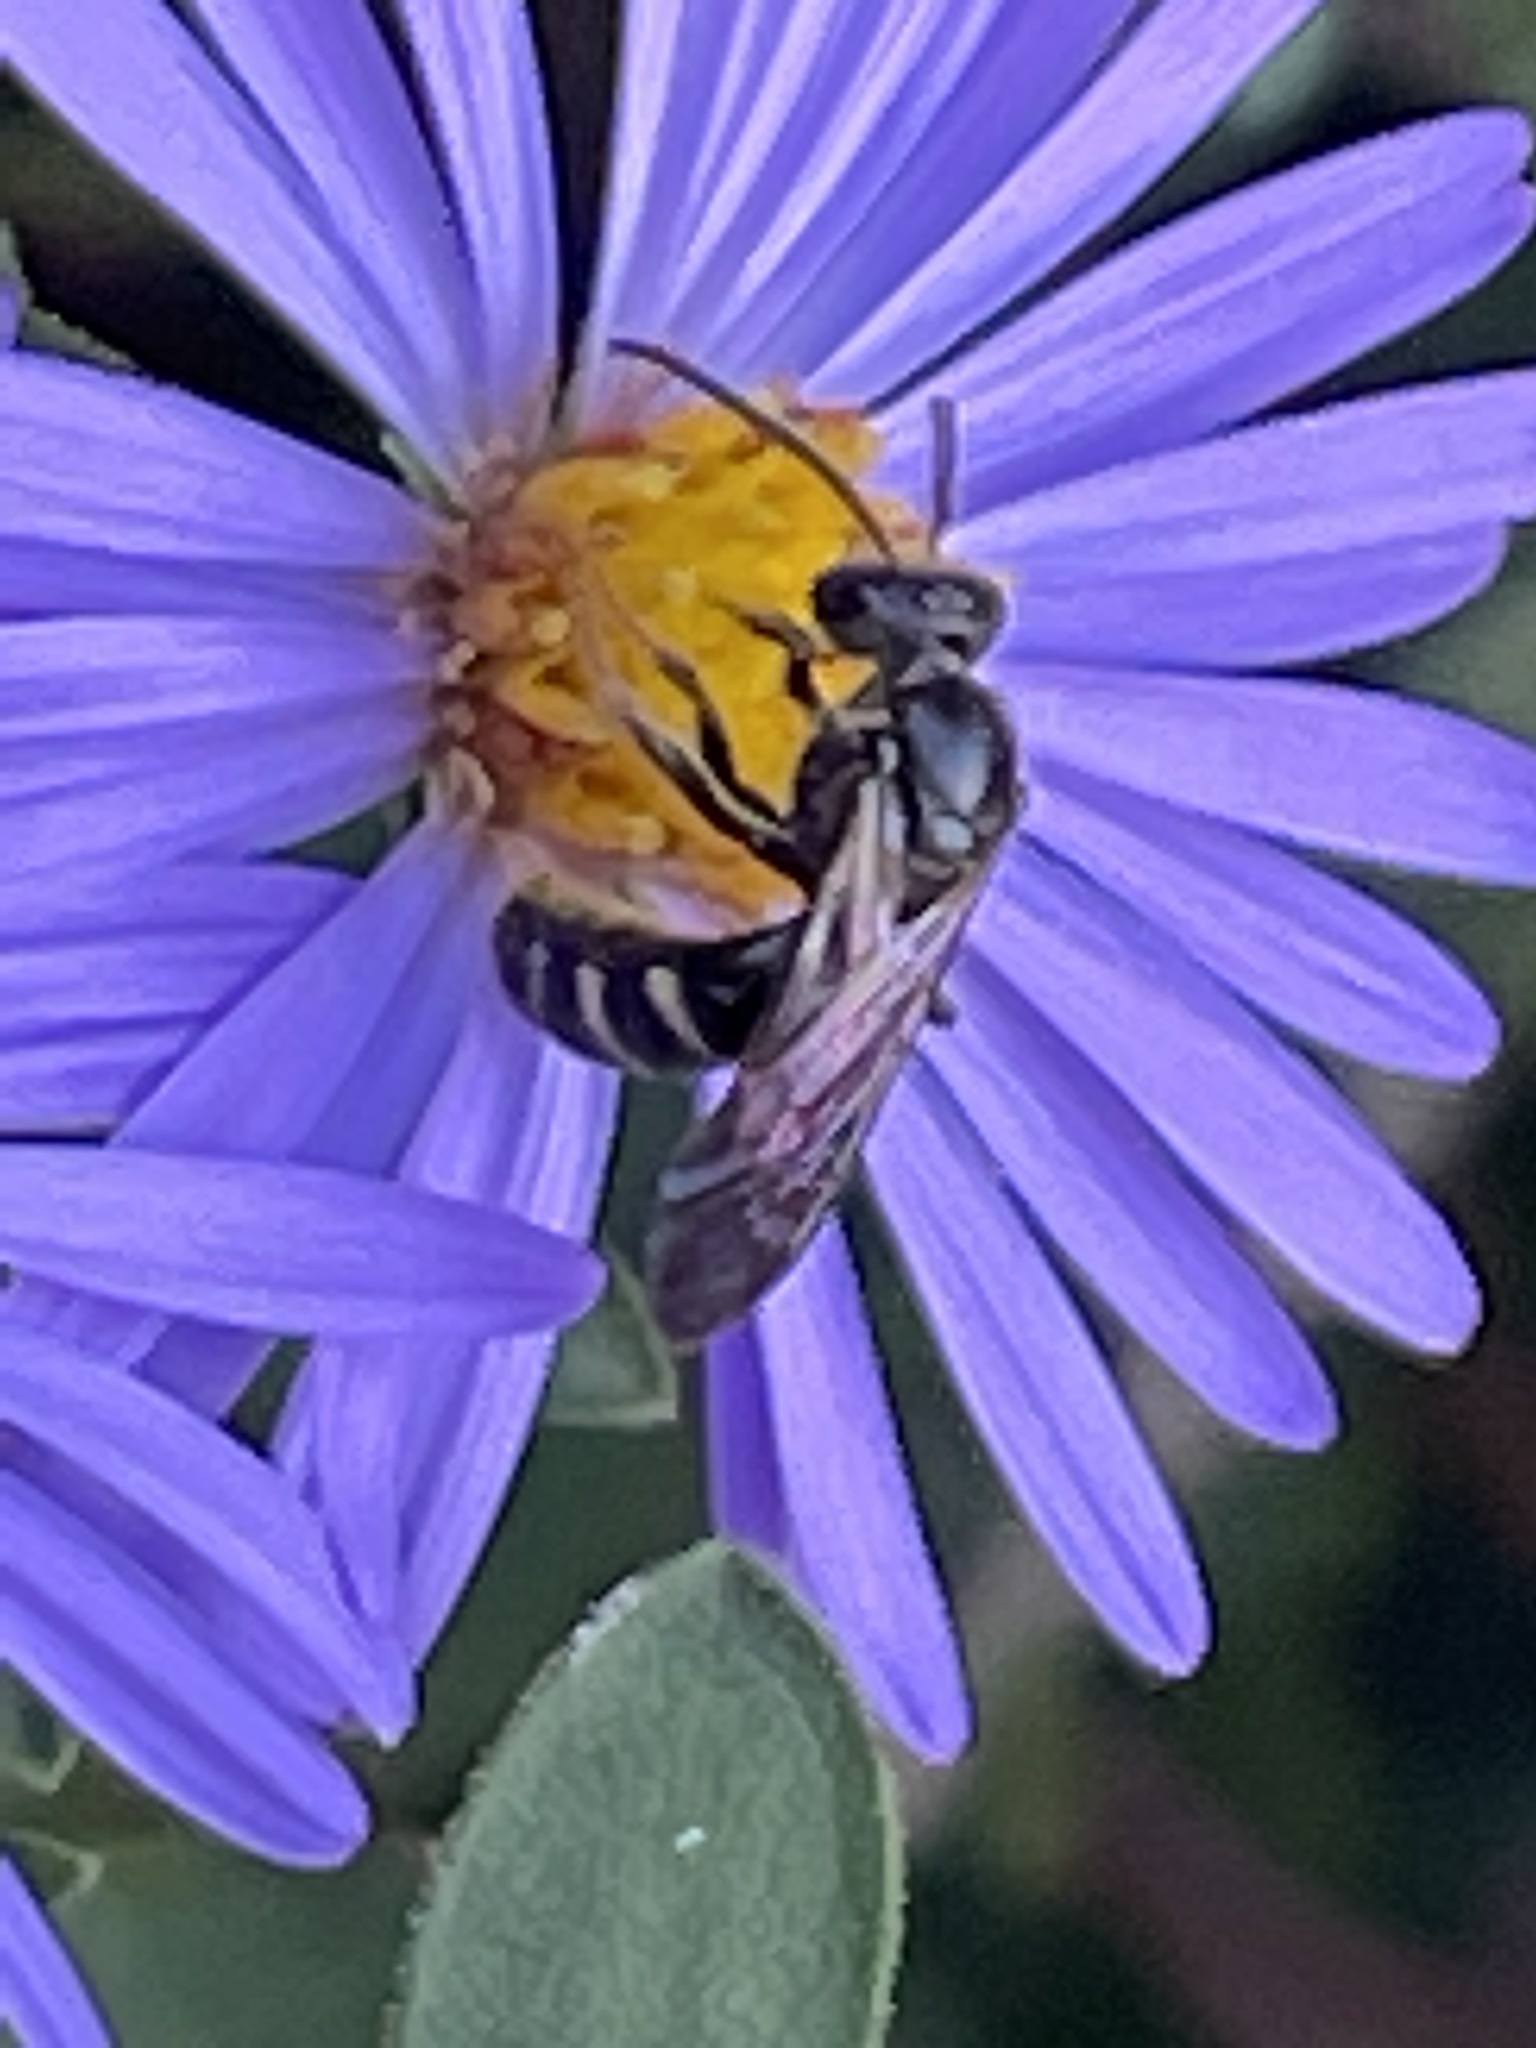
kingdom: Animalia
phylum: Arthropoda
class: Insecta
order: Hymenoptera
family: Halictidae
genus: Lasioglossum
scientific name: Lasioglossum fuscipenne
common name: Brown-winged sweat bee
